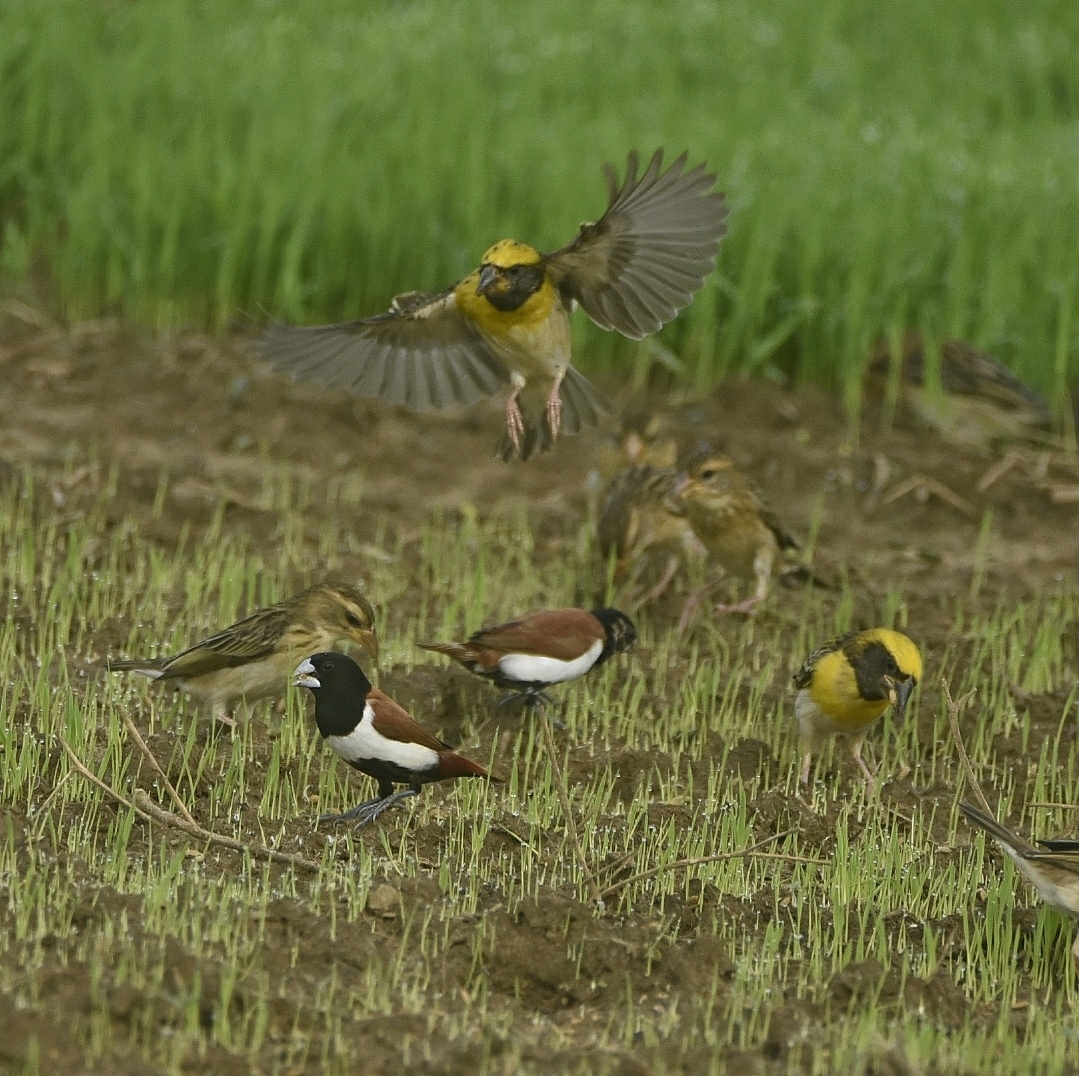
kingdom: Animalia
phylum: Chordata
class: Aves
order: Passeriformes
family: Estrildidae
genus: Lonchura
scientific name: Lonchura malacca
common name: Tricolored munia
